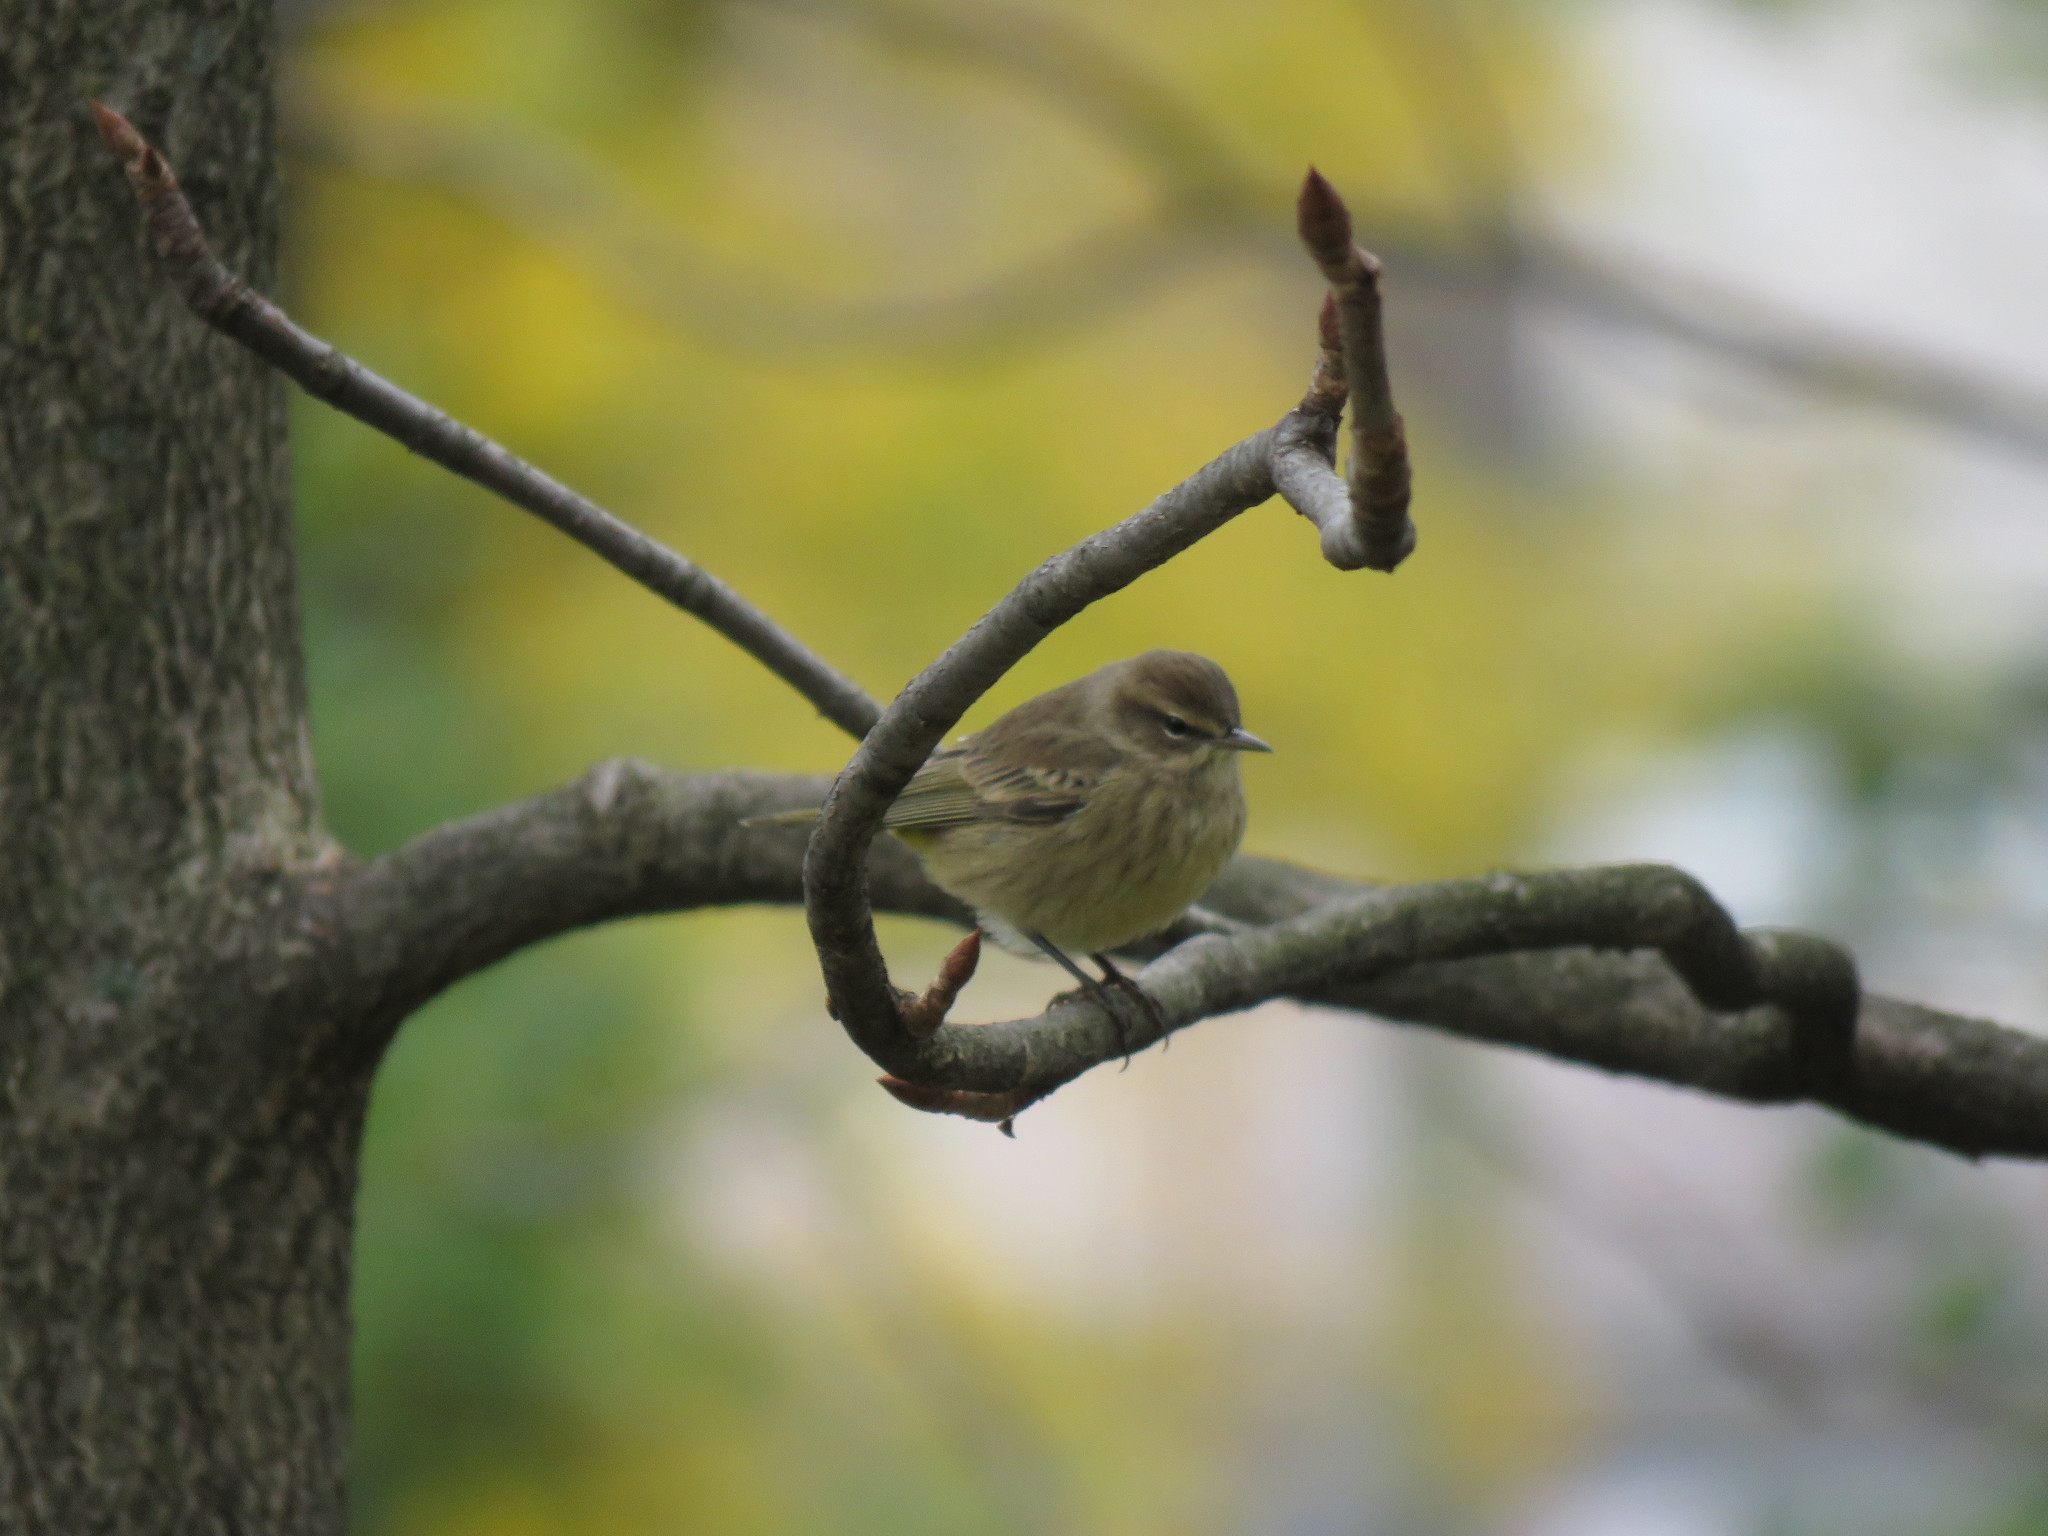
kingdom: Animalia
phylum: Chordata
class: Aves
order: Passeriformes
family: Parulidae
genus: Setophaga
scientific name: Setophaga palmarum
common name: Palm warbler
